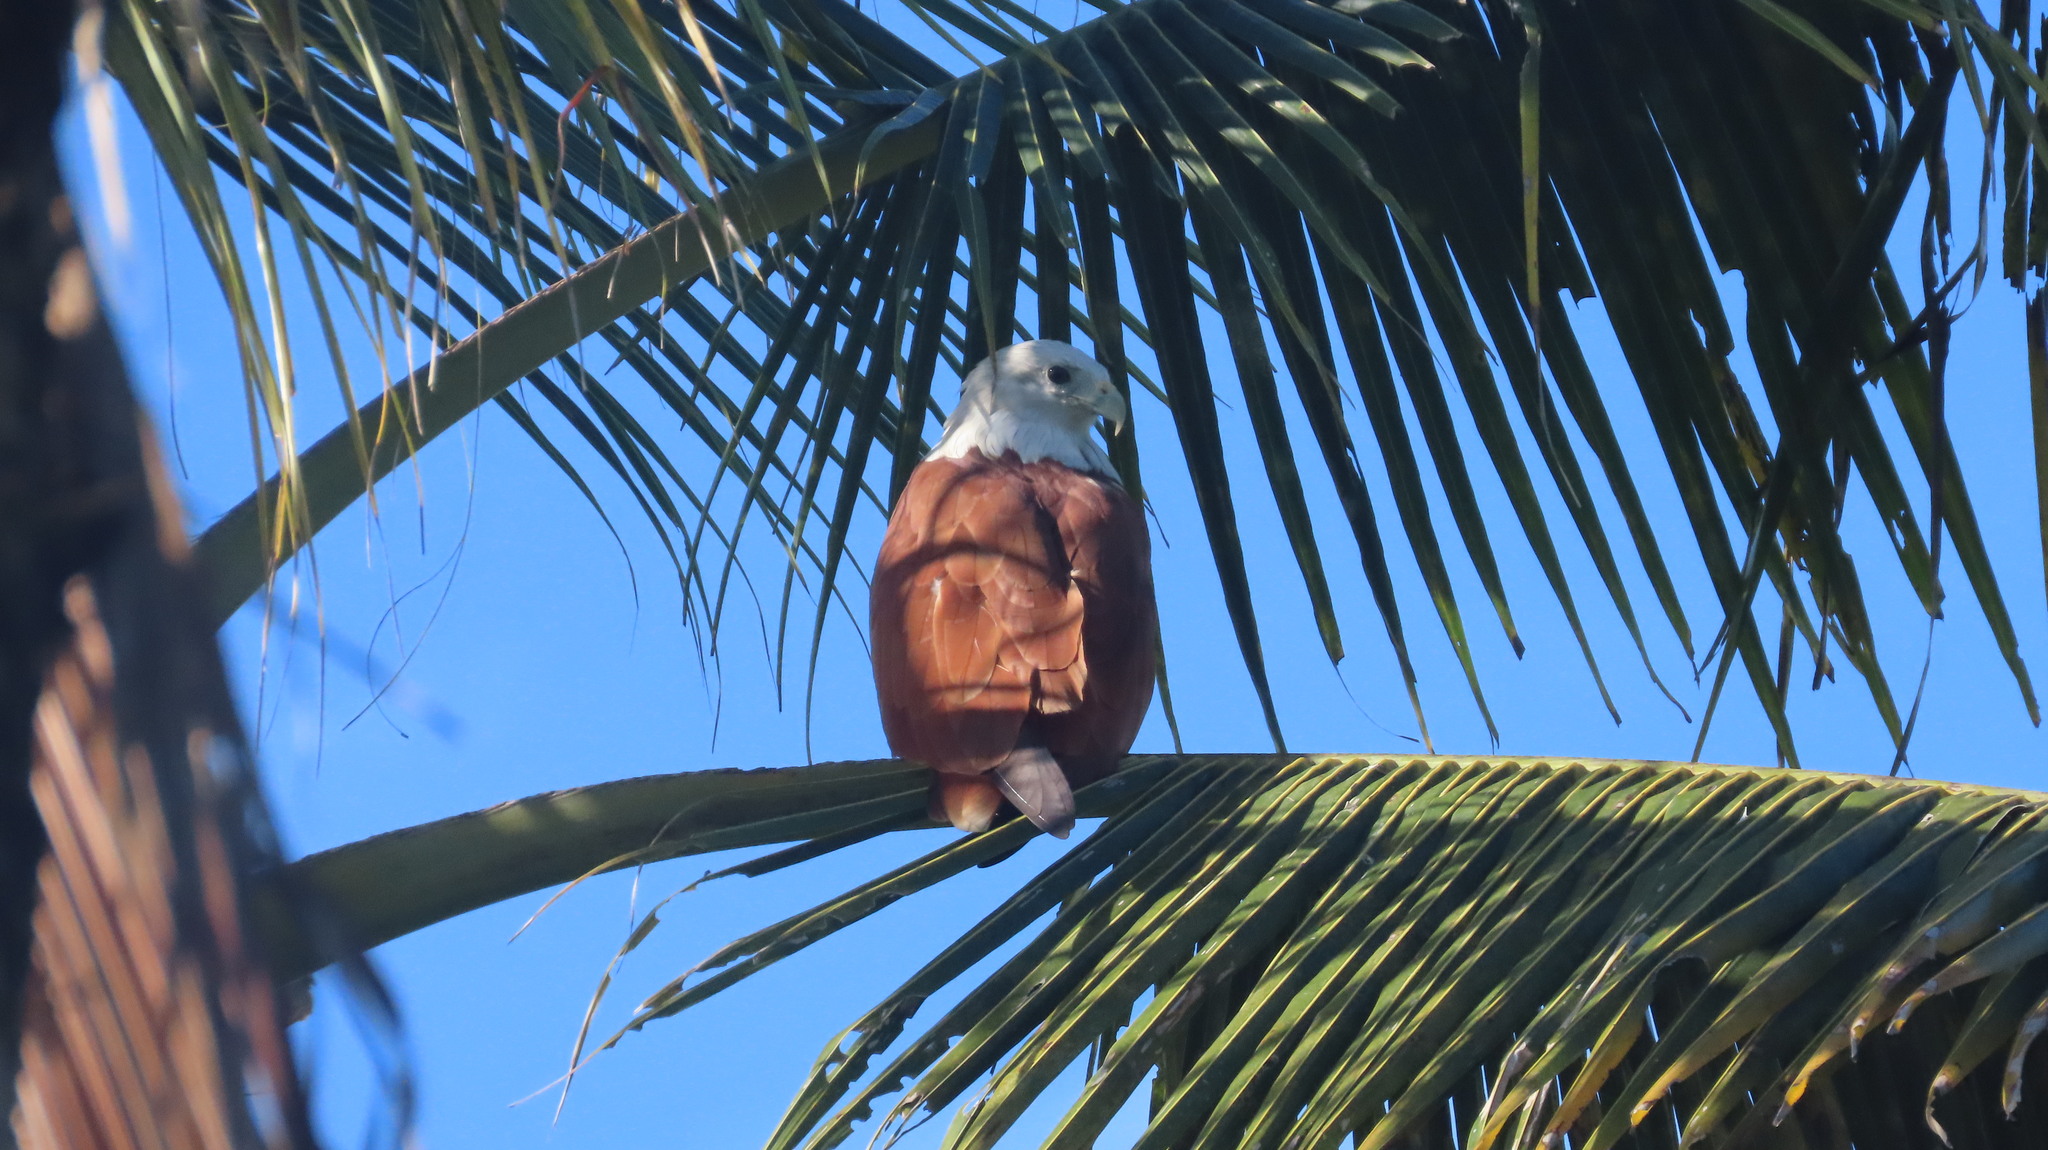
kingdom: Animalia
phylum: Chordata
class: Aves
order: Accipitriformes
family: Accipitridae
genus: Haliastur
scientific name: Haliastur indus
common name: Brahminy kite
